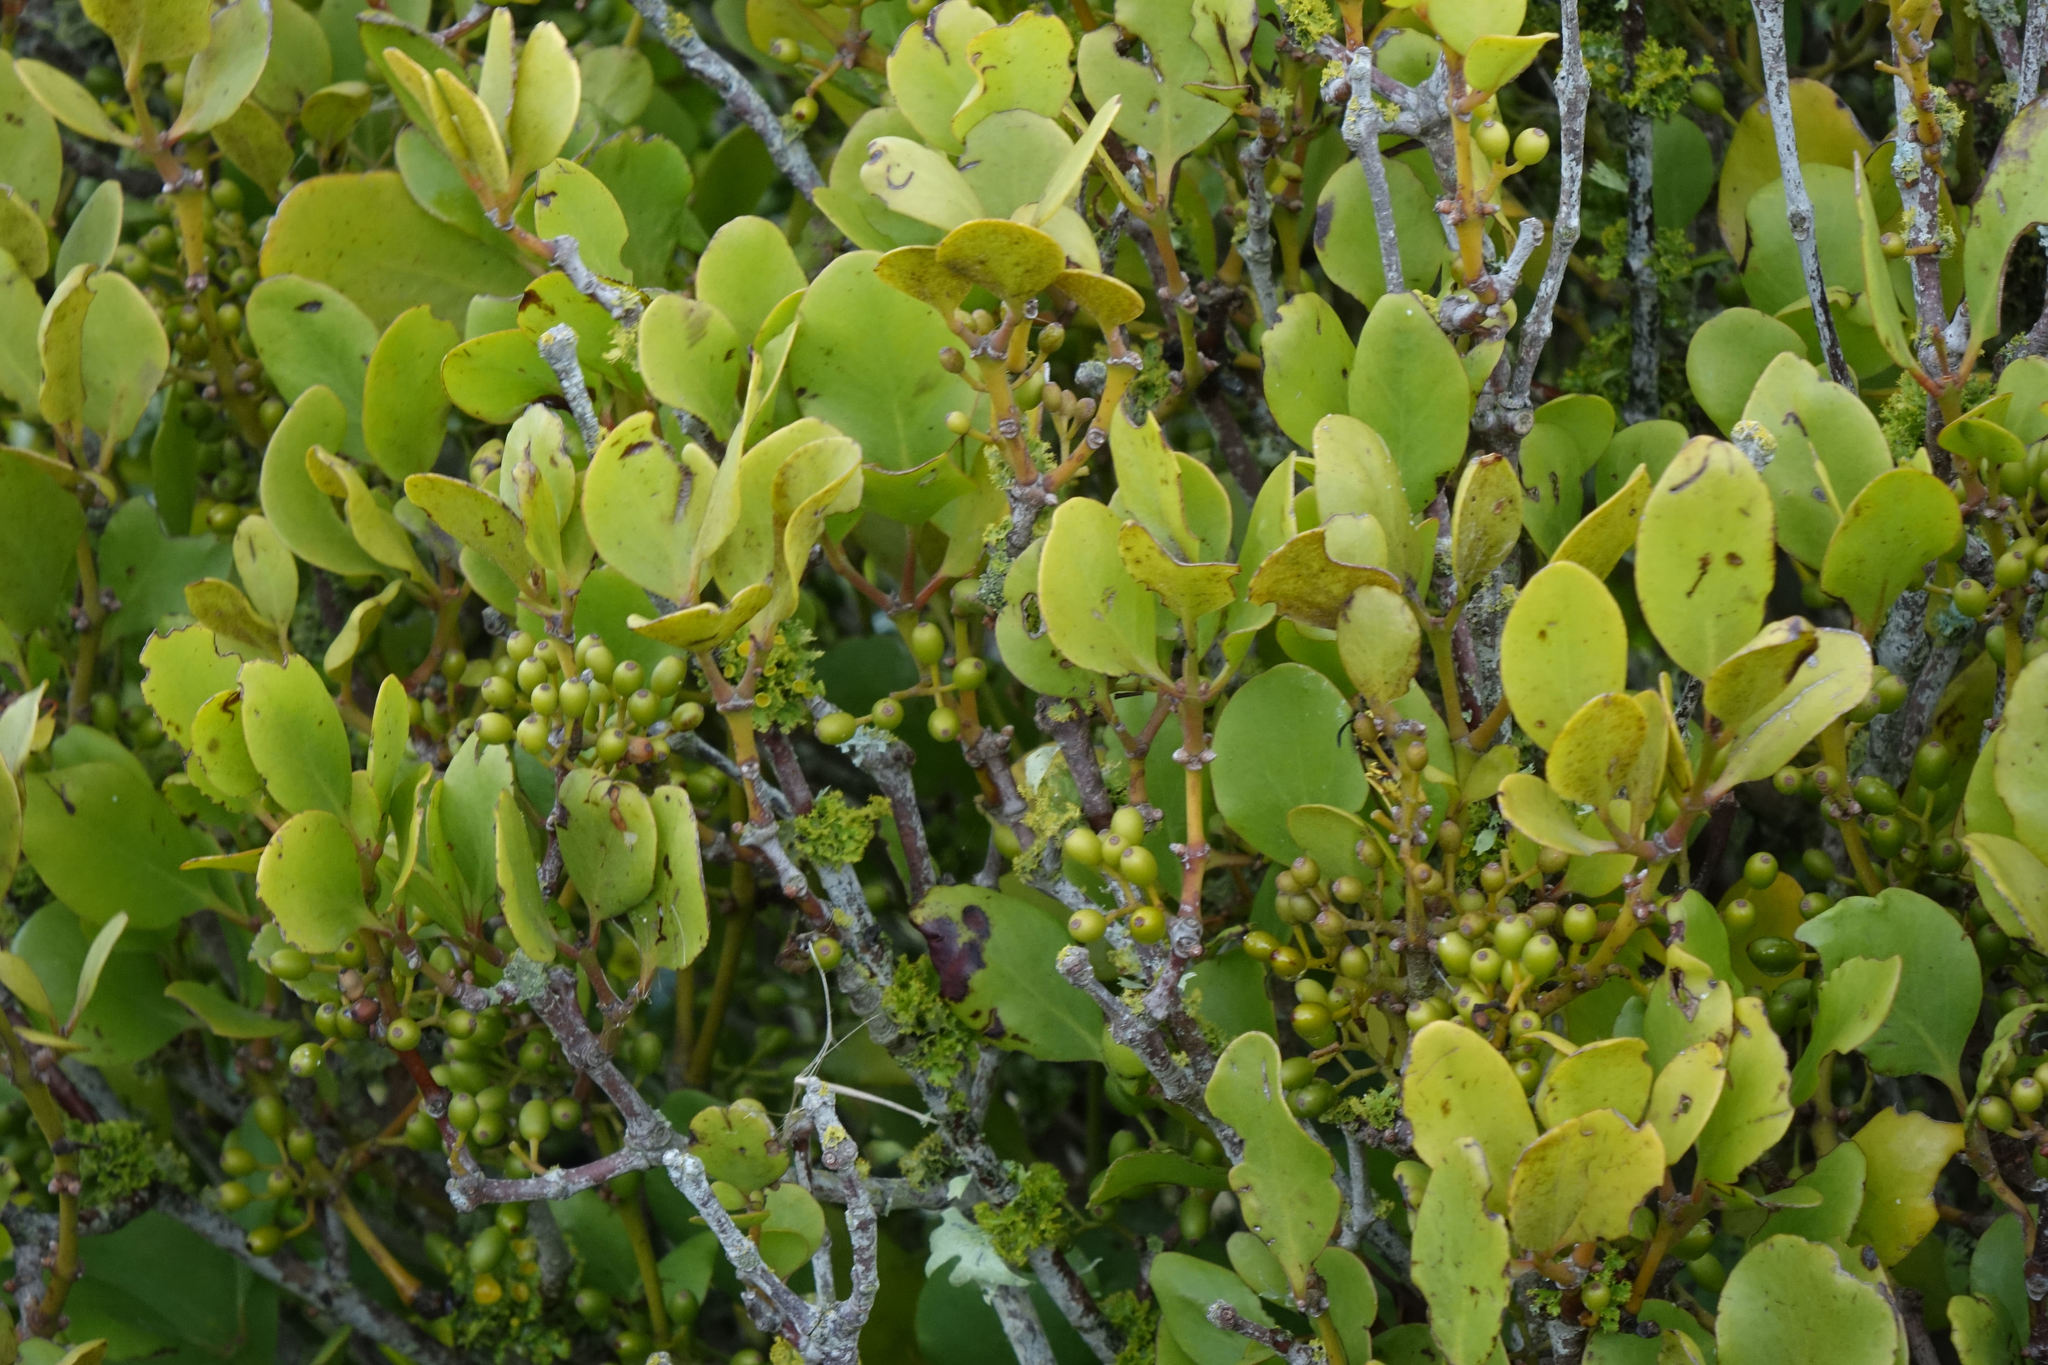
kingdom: Plantae
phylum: Tracheophyta
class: Magnoliopsida
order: Santalales
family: Loranthaceae
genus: Ileostylus
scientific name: Ileostylus micranthus
